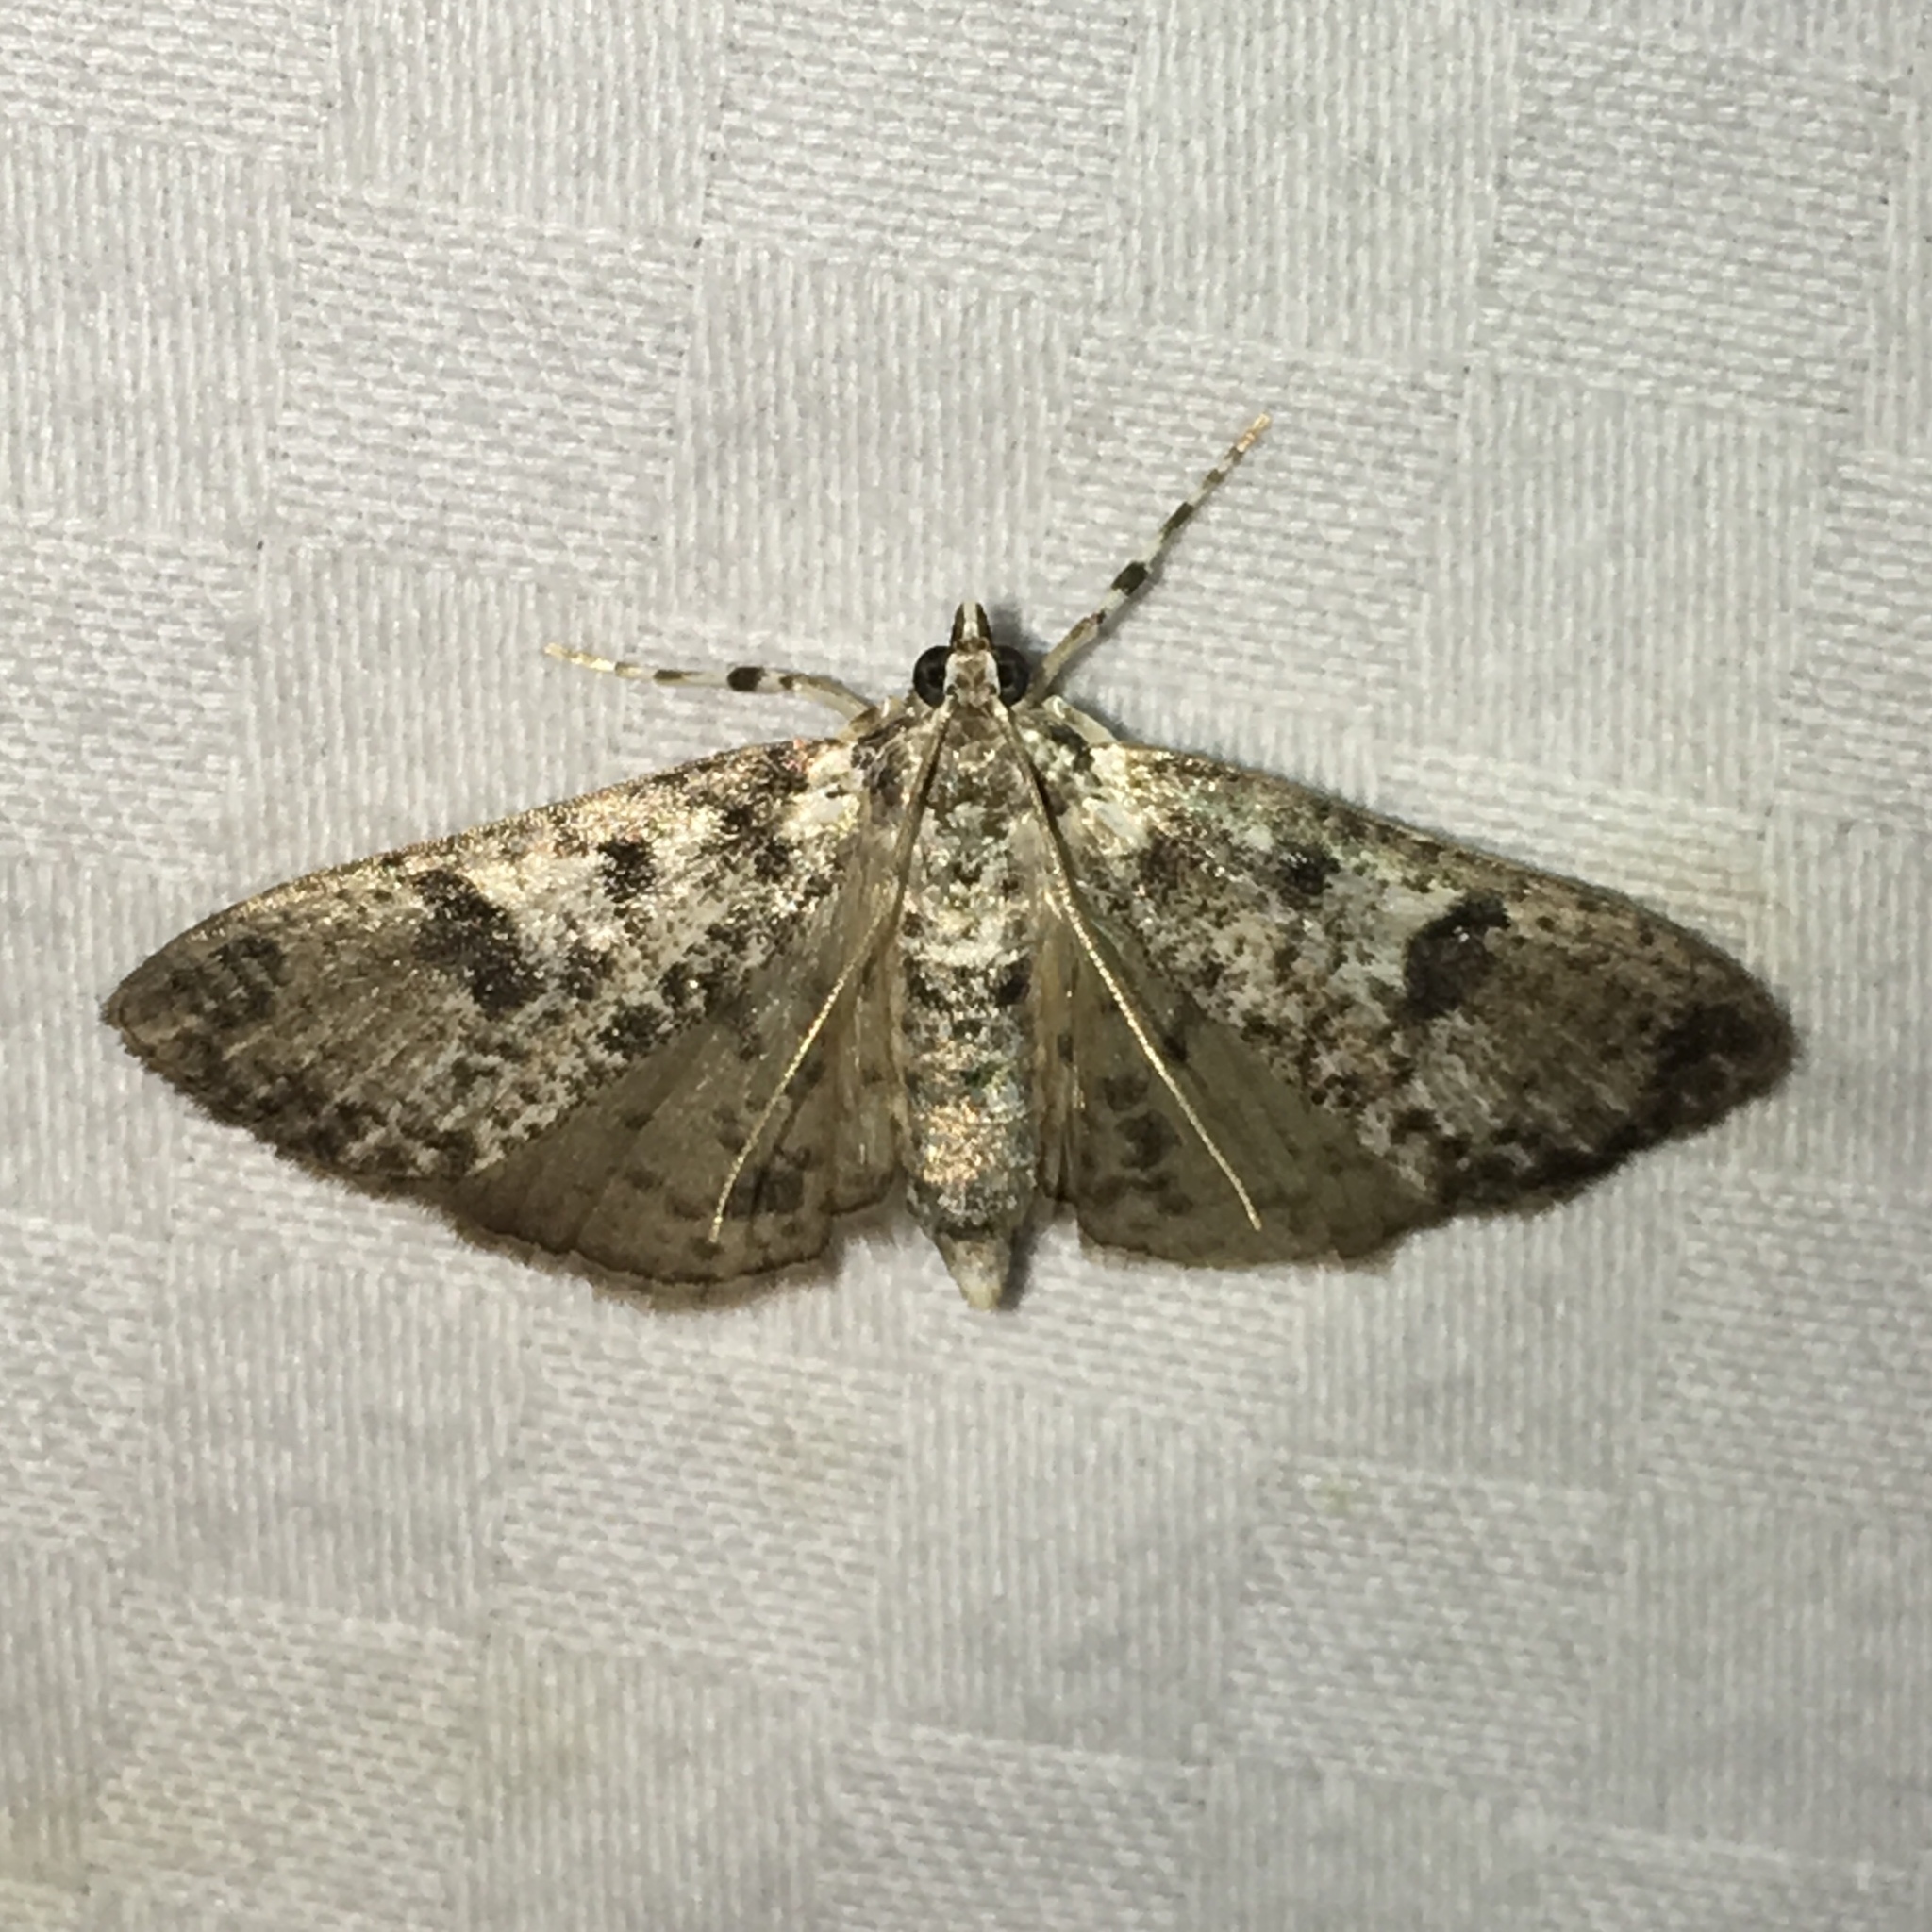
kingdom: Animalia
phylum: Arthropoda
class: Insecta
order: Lepidoptera
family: Crambidae
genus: Palpita
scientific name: Palpita magniferalis
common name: Splendid palpita moth
